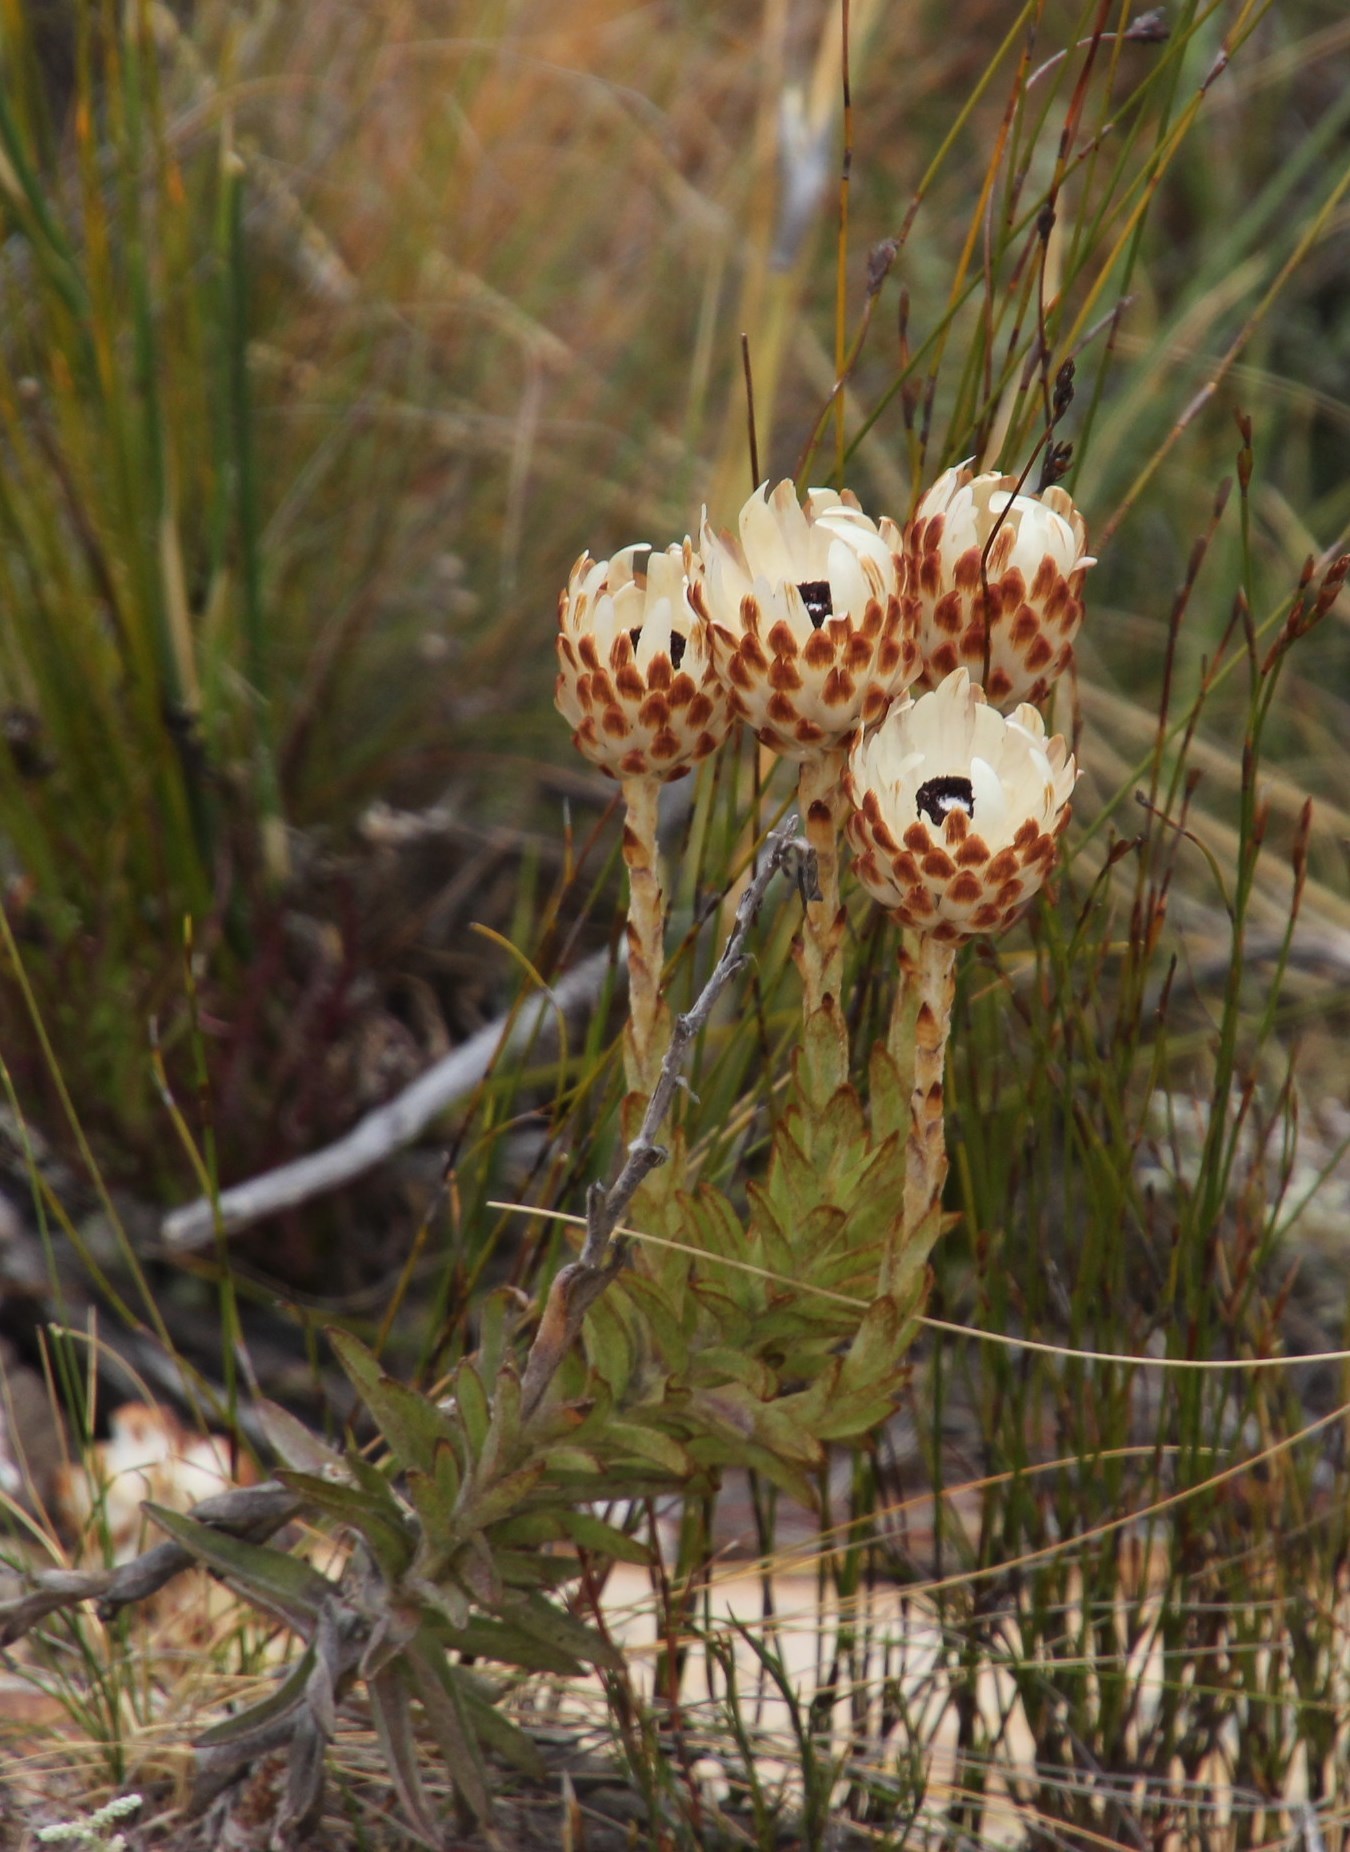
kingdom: Plantae
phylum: Tracheophyta
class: Magnoliopsida
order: Asterales
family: Asteraceae
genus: Syncarpha
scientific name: Syncarpha variegata
